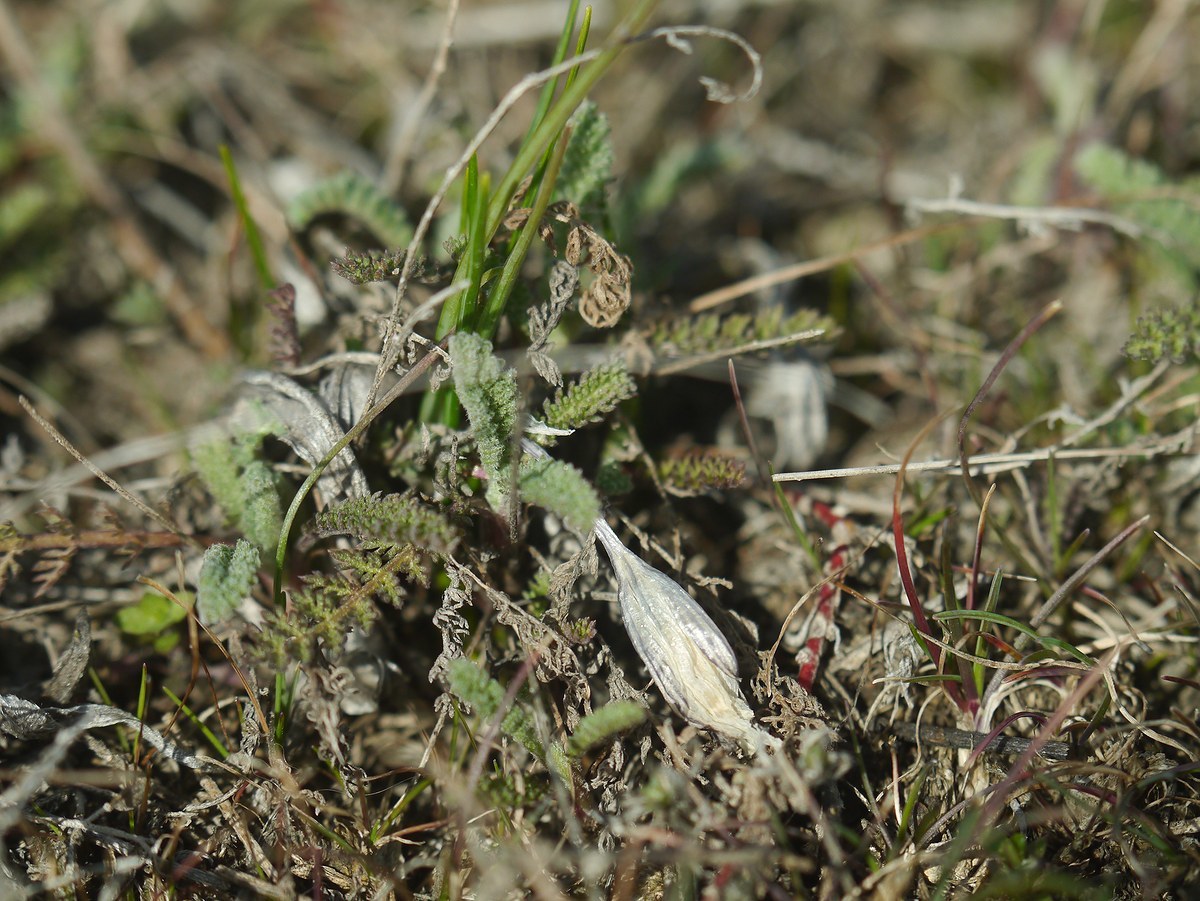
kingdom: Plantae
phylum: Tracheophyta
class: Liliopsida
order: Asparagales
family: Iridaceae
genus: Crocus
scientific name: Crocus reticulatus
